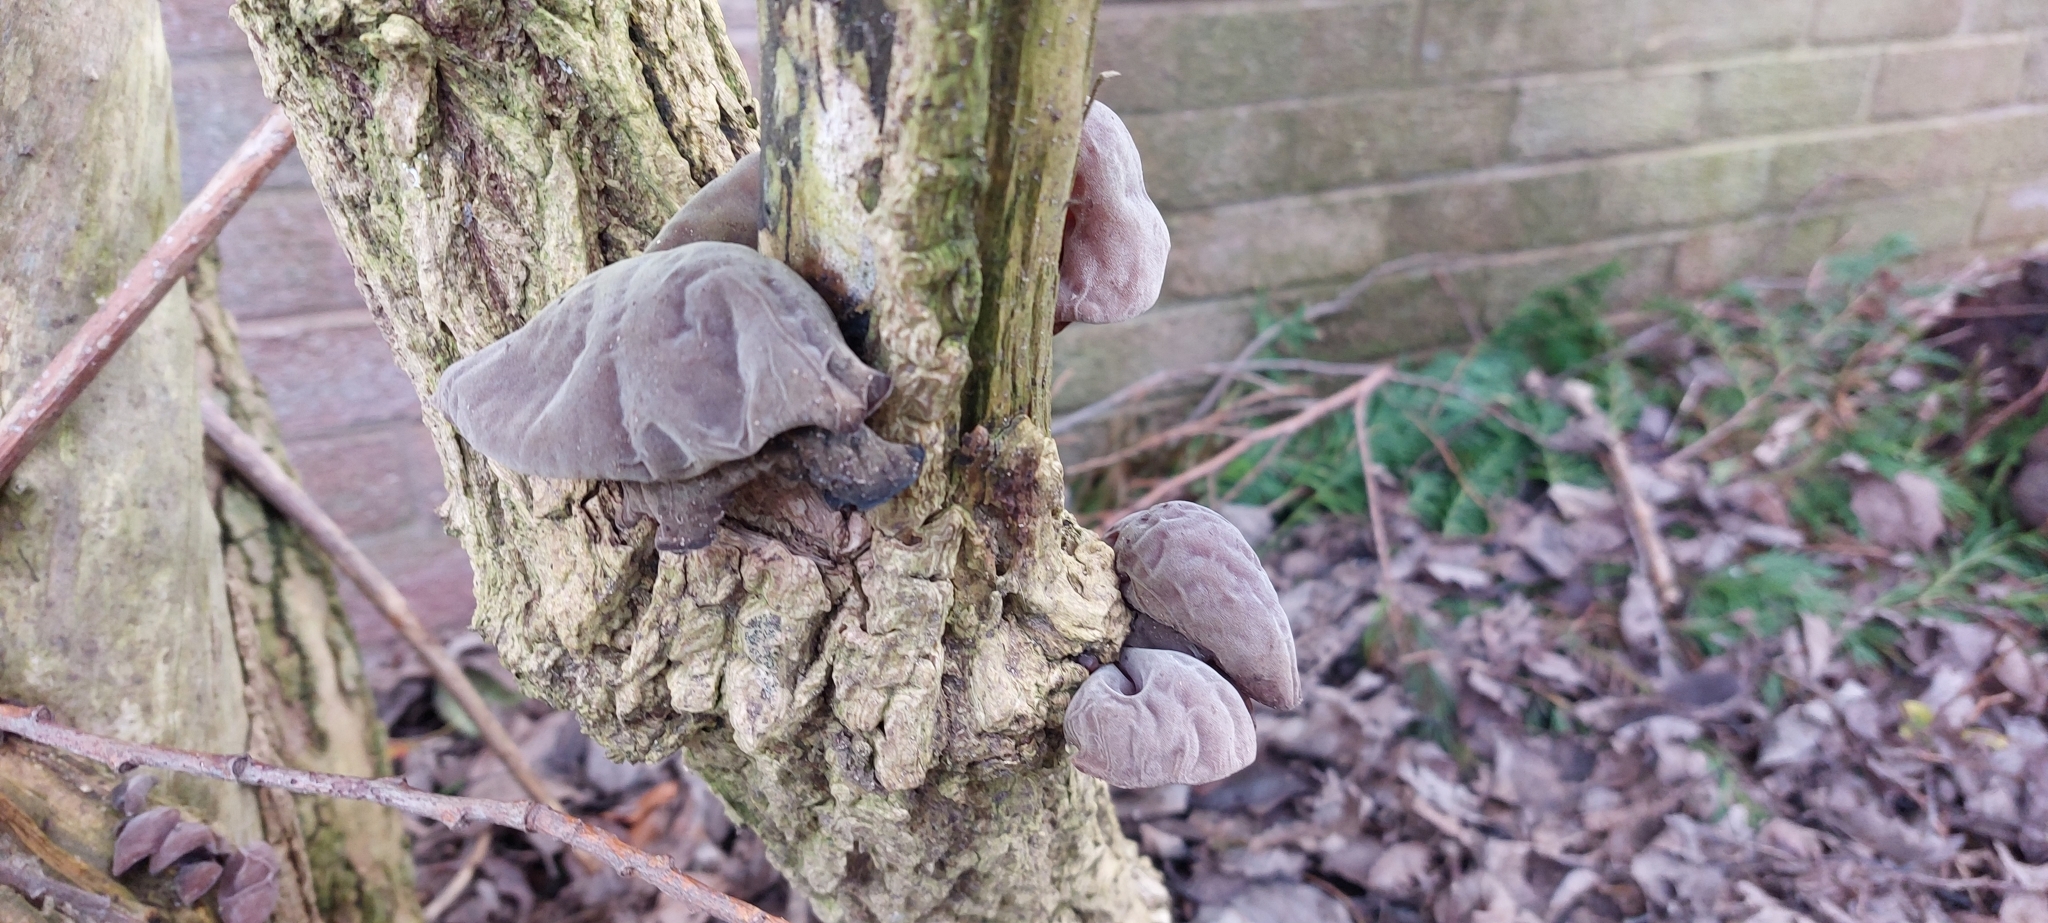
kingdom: Fungi
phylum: Basidiomycota
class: Agaricomycetes
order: Auriculariales
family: Auriculariaceae
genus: Auricularia
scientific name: Auricularia auricula-judae
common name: Jelly ear
